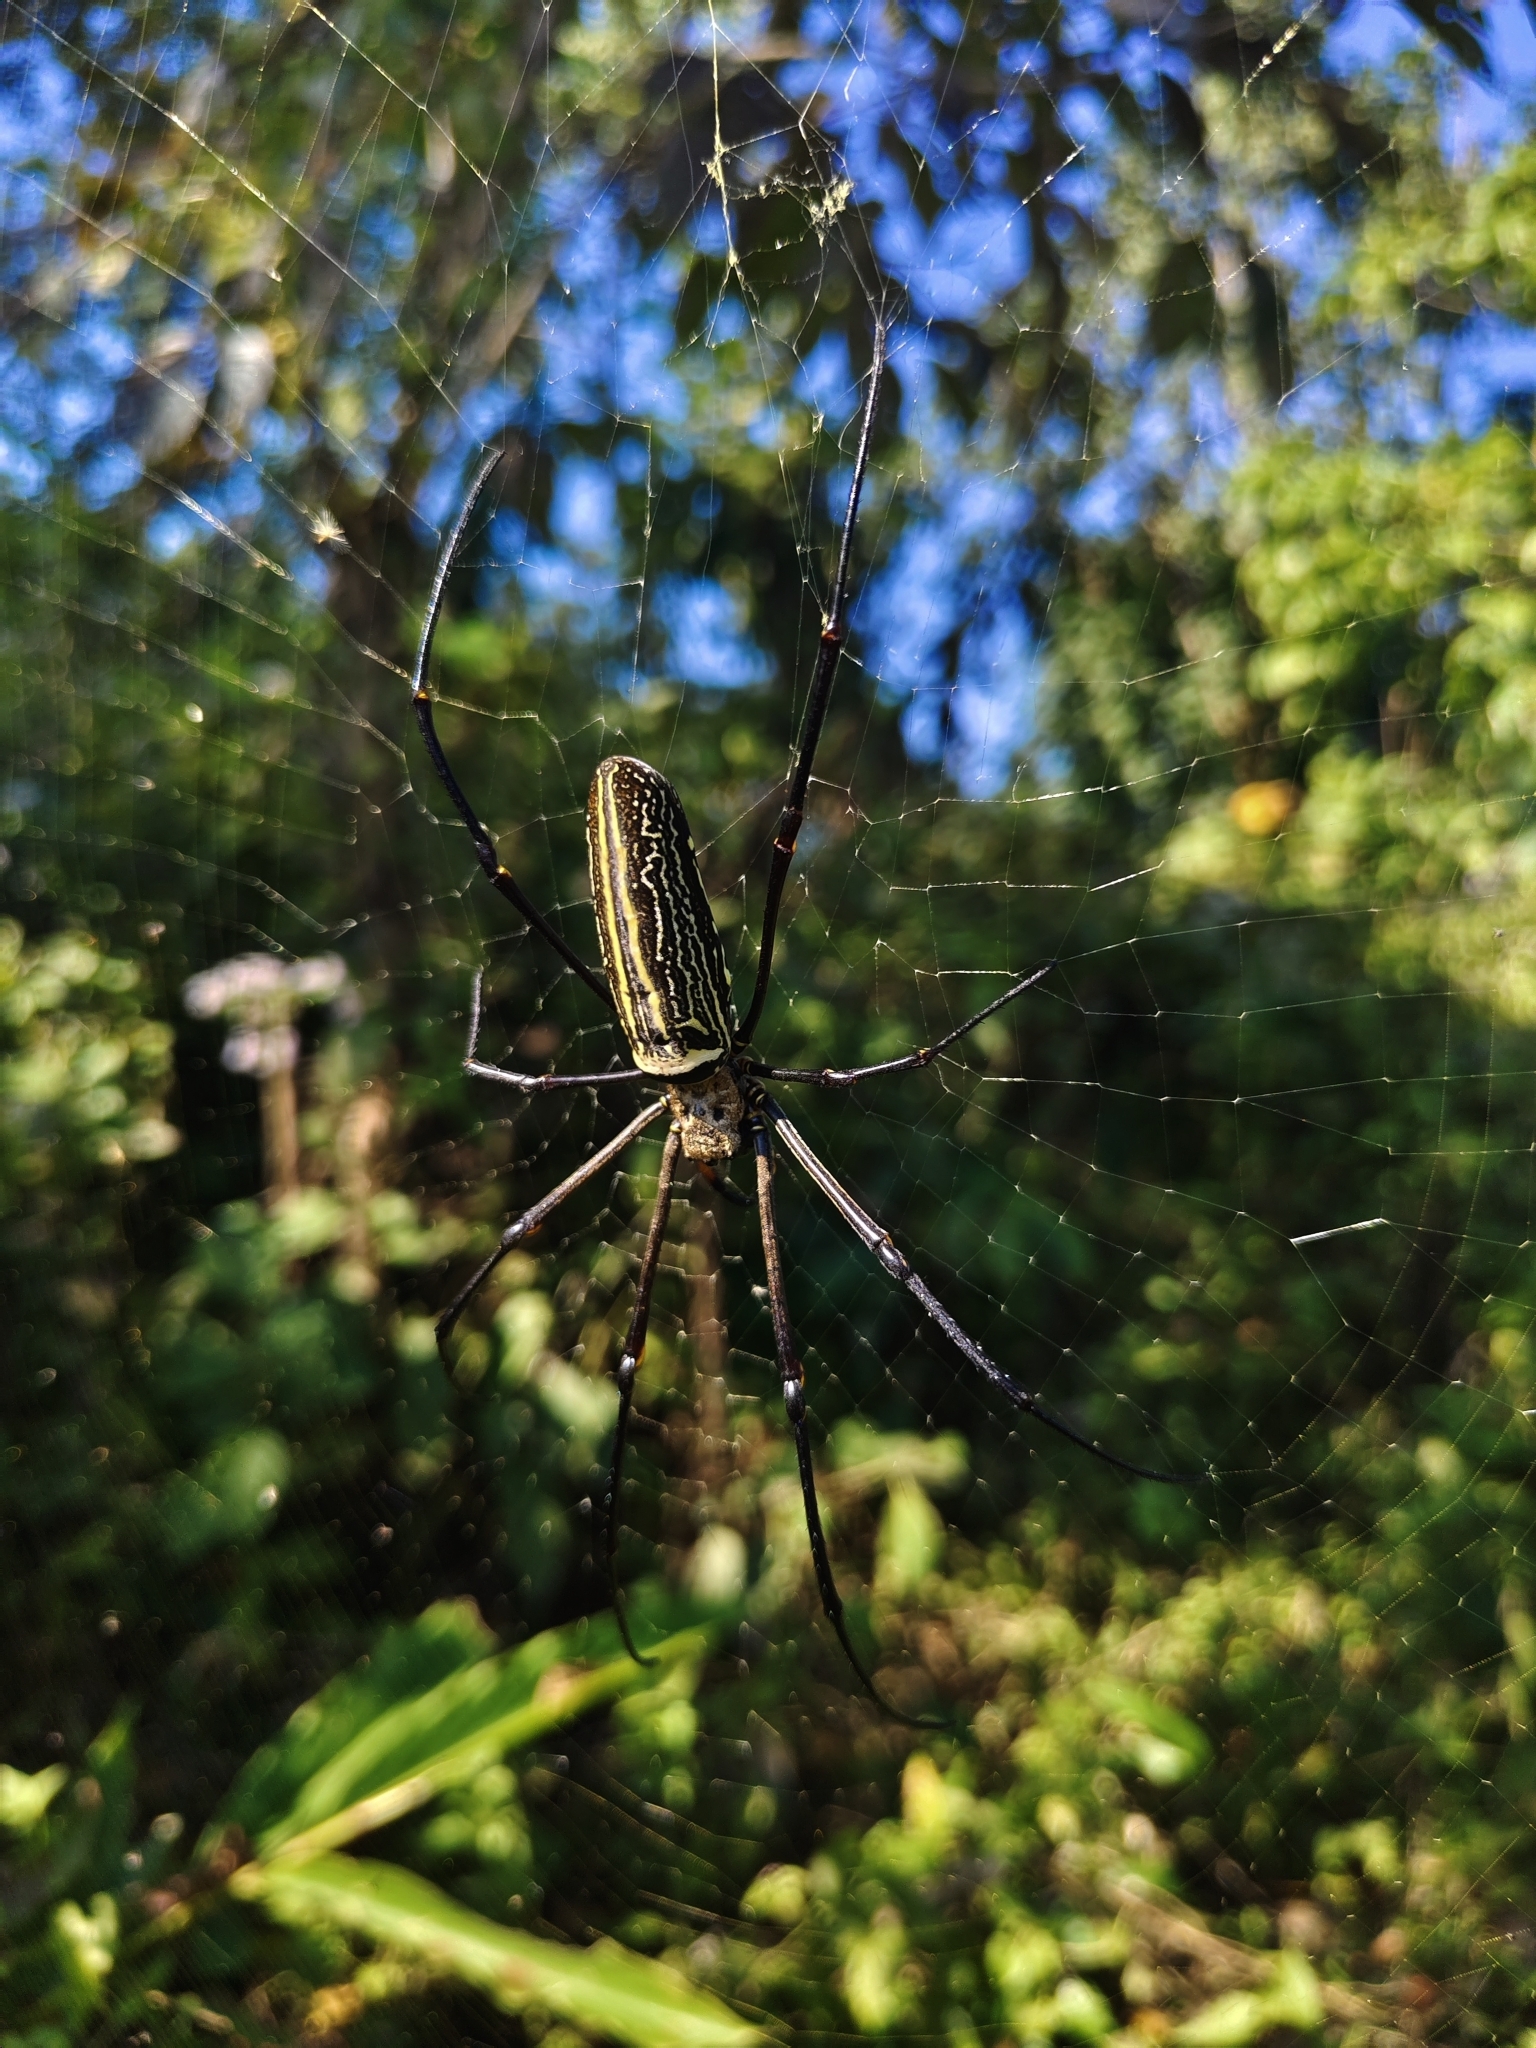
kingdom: Animalia
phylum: Arthropoda
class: Arachnida
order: Araneae
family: Araneidae
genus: Nephila
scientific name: Nephila pilipes
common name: Giant golden orb weaver
